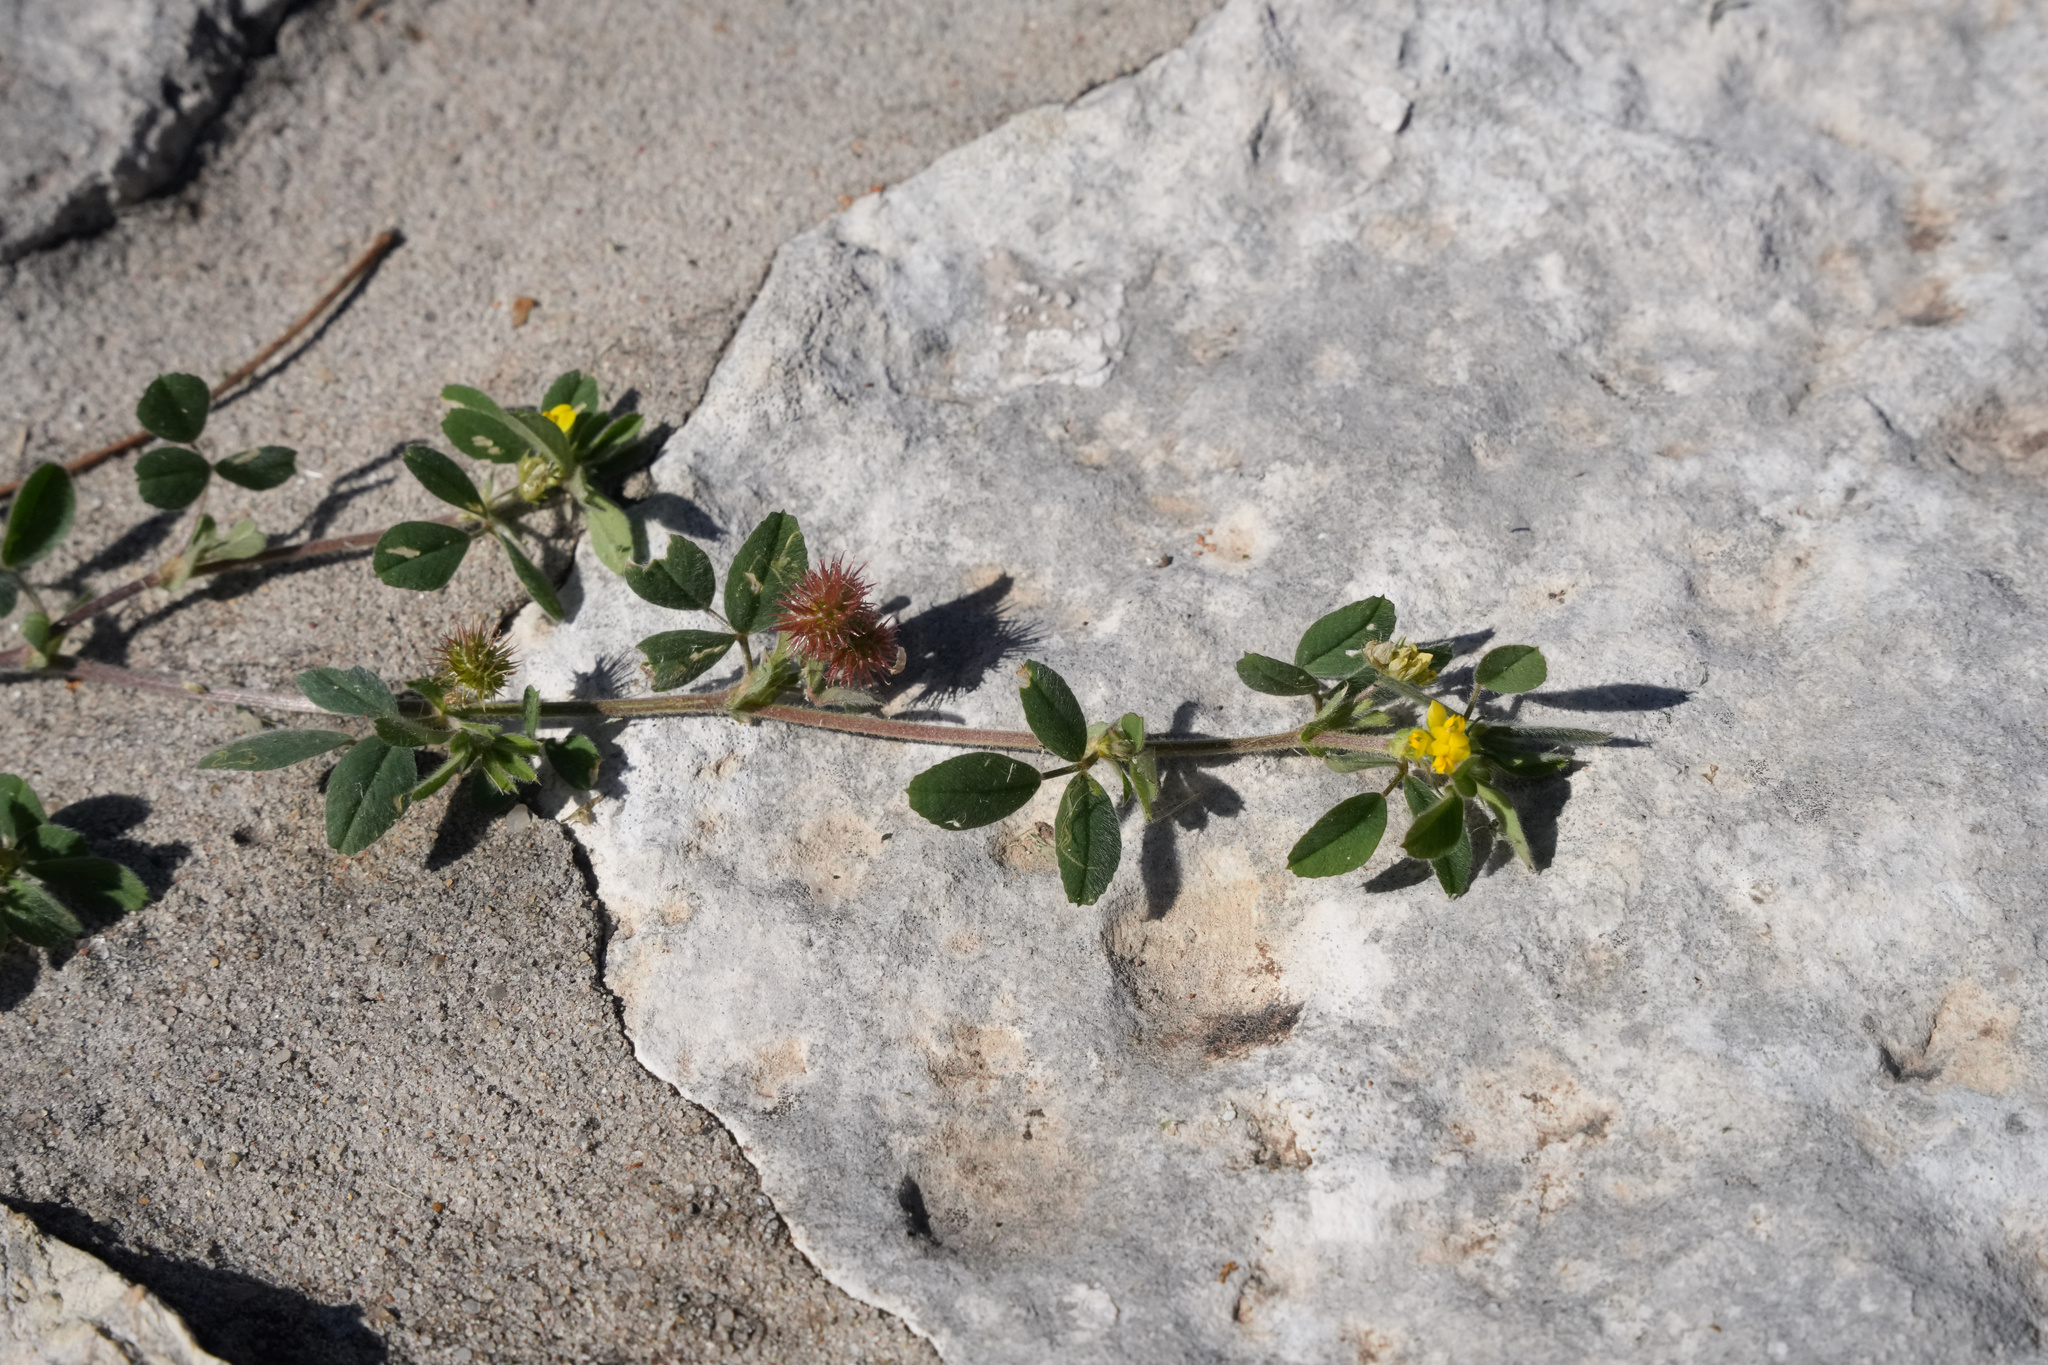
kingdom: Plantae
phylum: Tracheophyta
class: Magnoliopsida
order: Fabales
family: Fabaceae
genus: Medicago
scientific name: Medicago minima
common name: Little bur-clover
